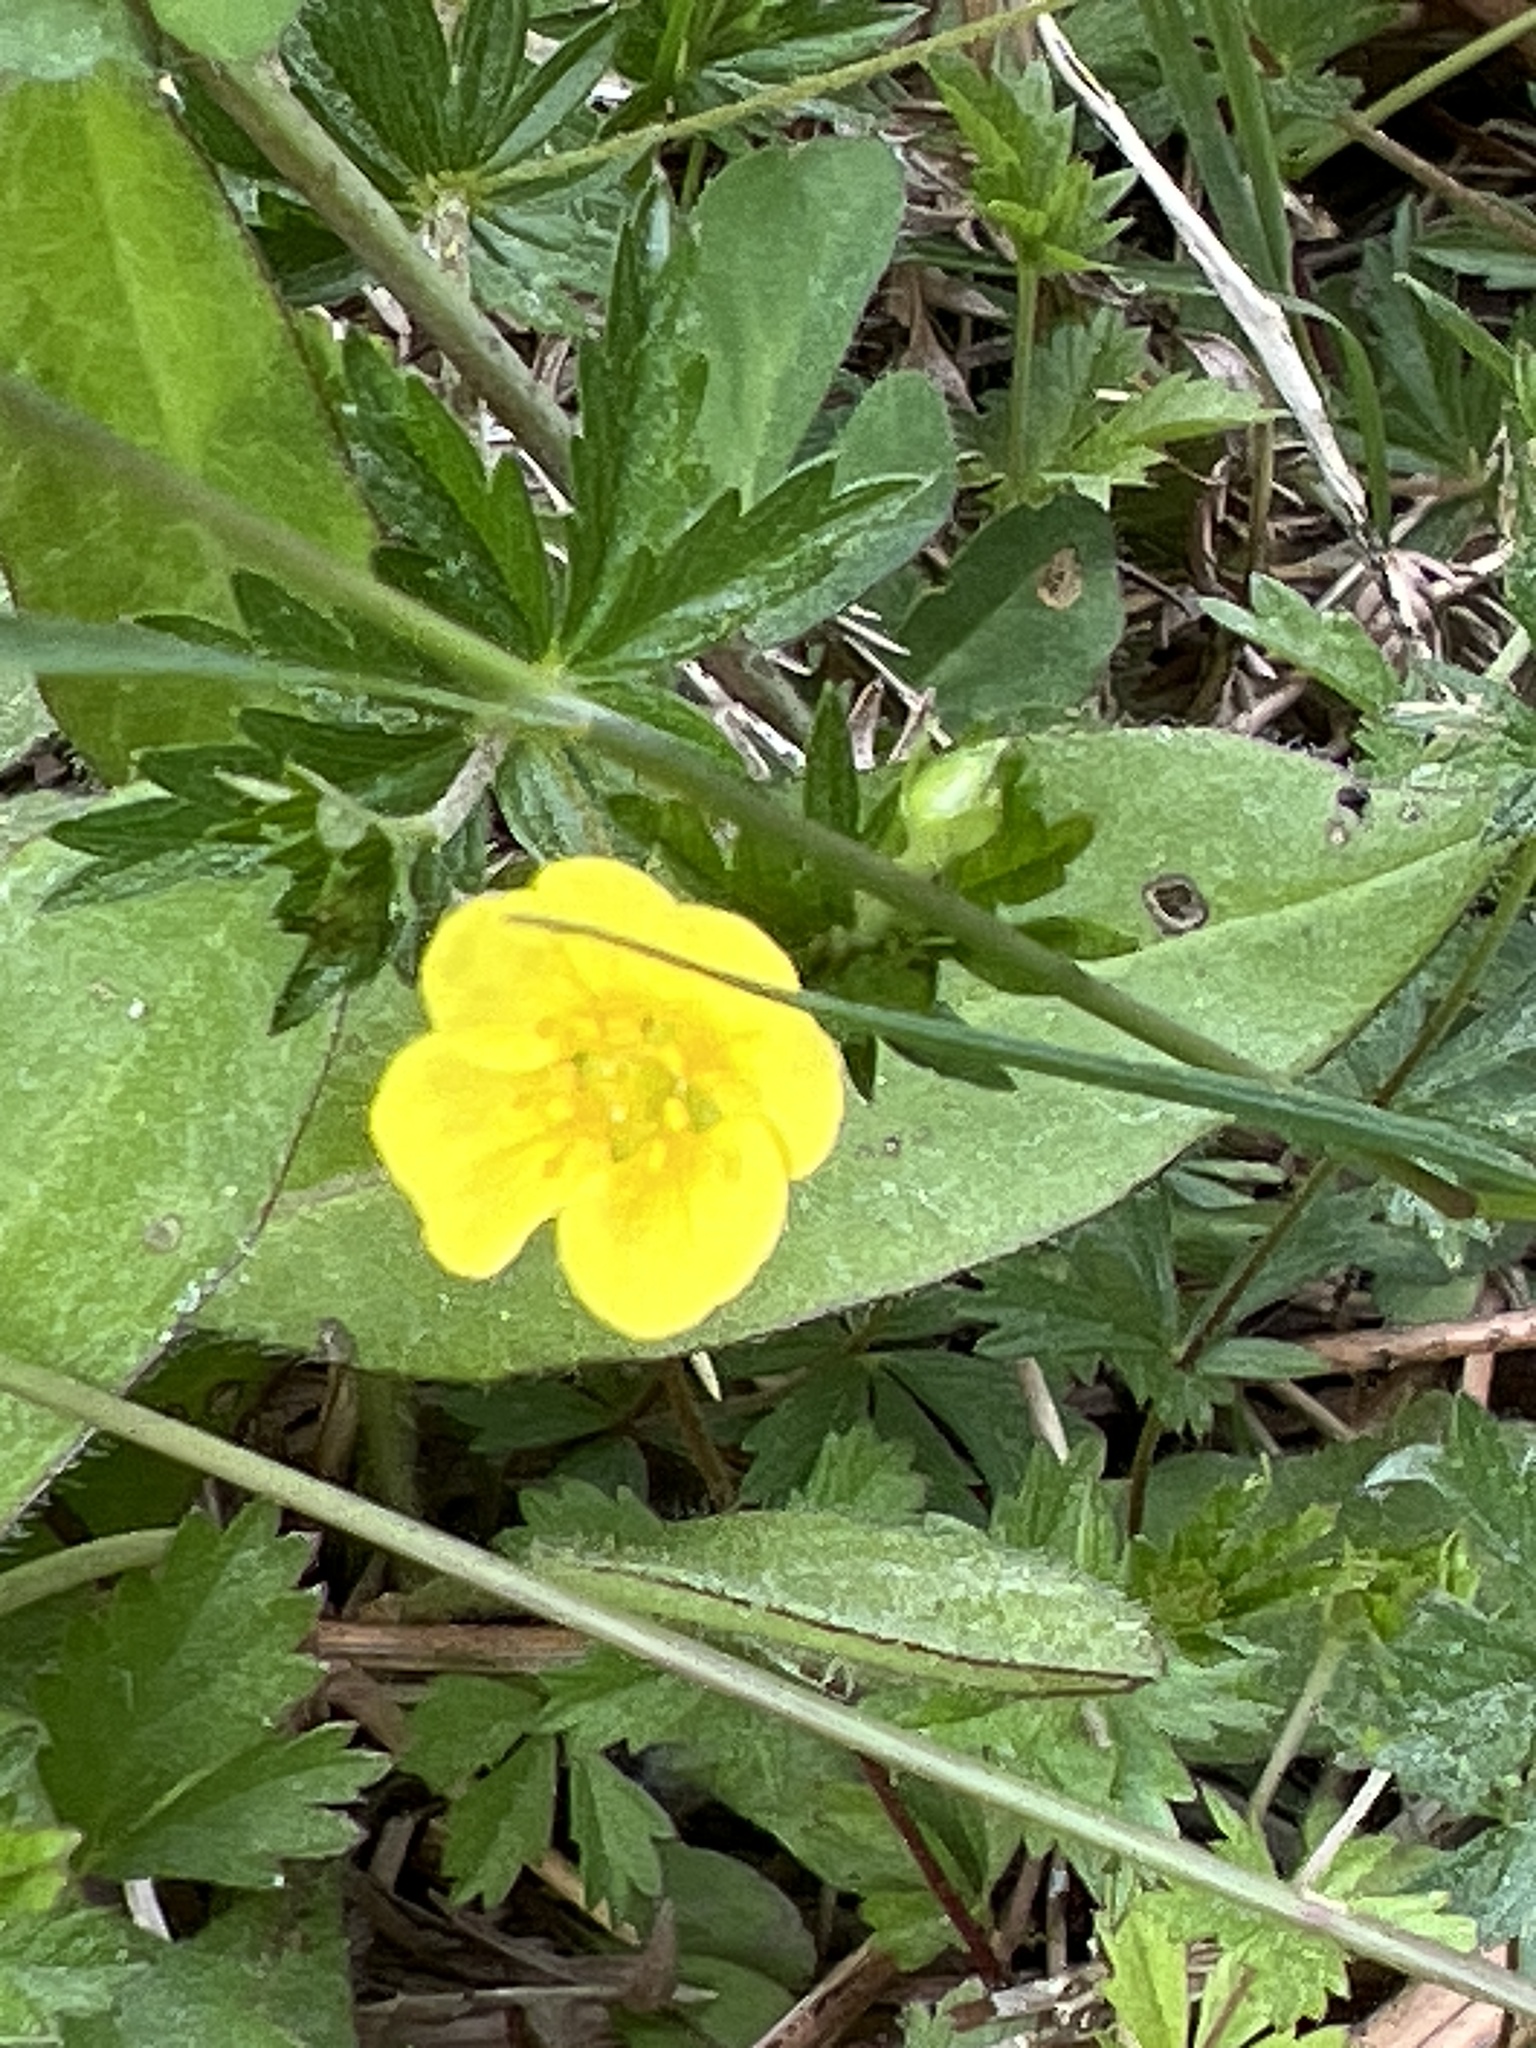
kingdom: Plantae
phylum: Tracheophyta
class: Magnoliopsida
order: Rosales
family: Rosaceae
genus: Potentilla
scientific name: Potentilla erecta
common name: Tormentil
